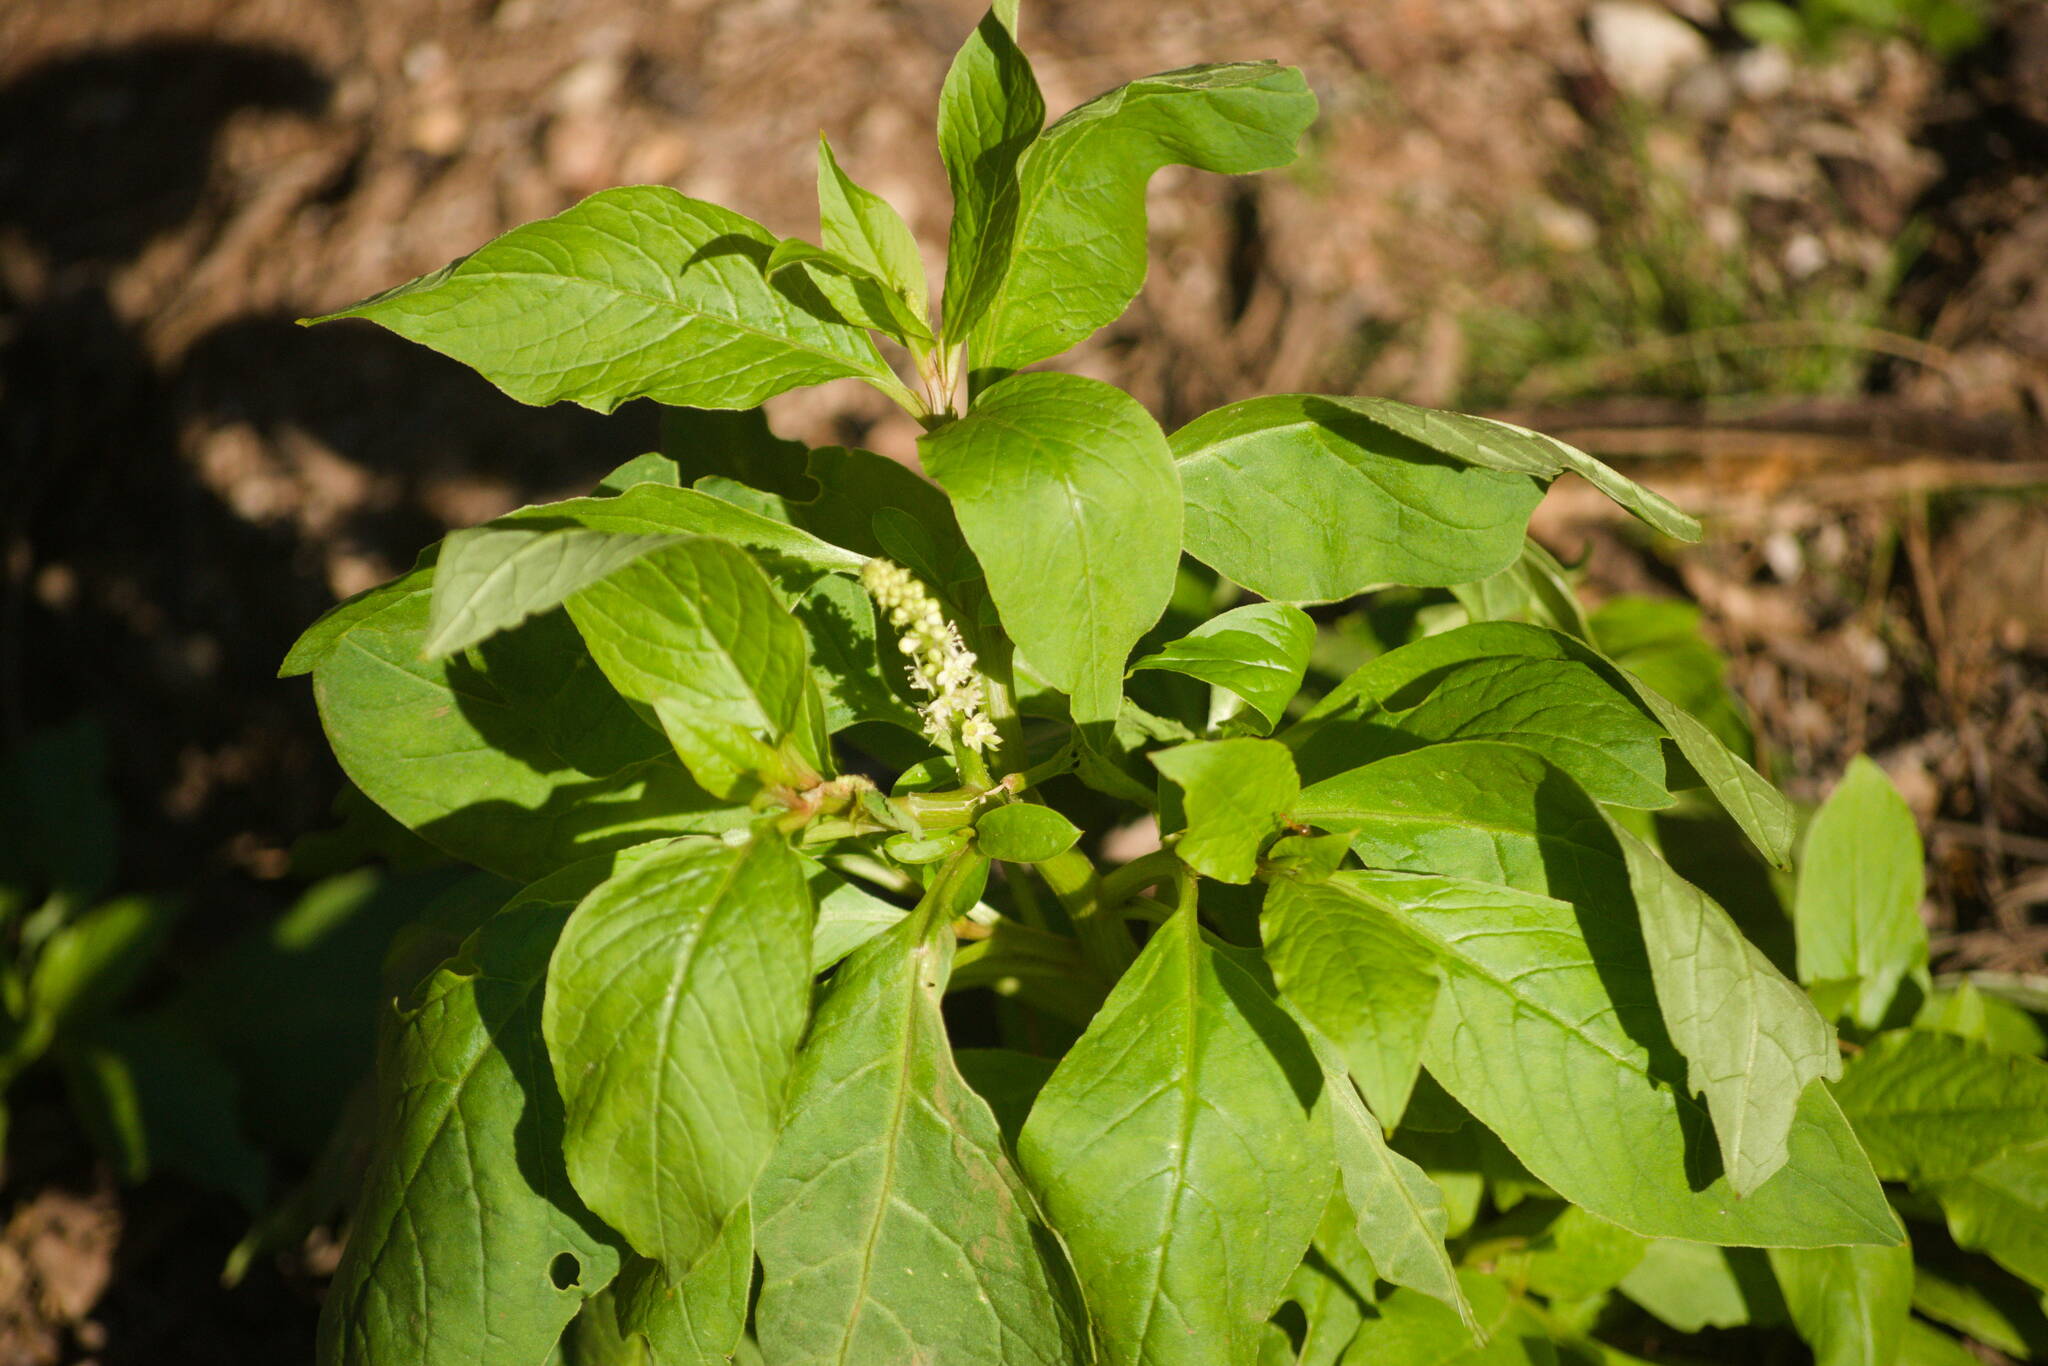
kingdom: Plantae
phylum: Tracheophyta
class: Magnoliopsida
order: Caryophyllales
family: Phytolaccaceae
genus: Phytolacca
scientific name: Phytolacca icosandra
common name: Button pokeweed
